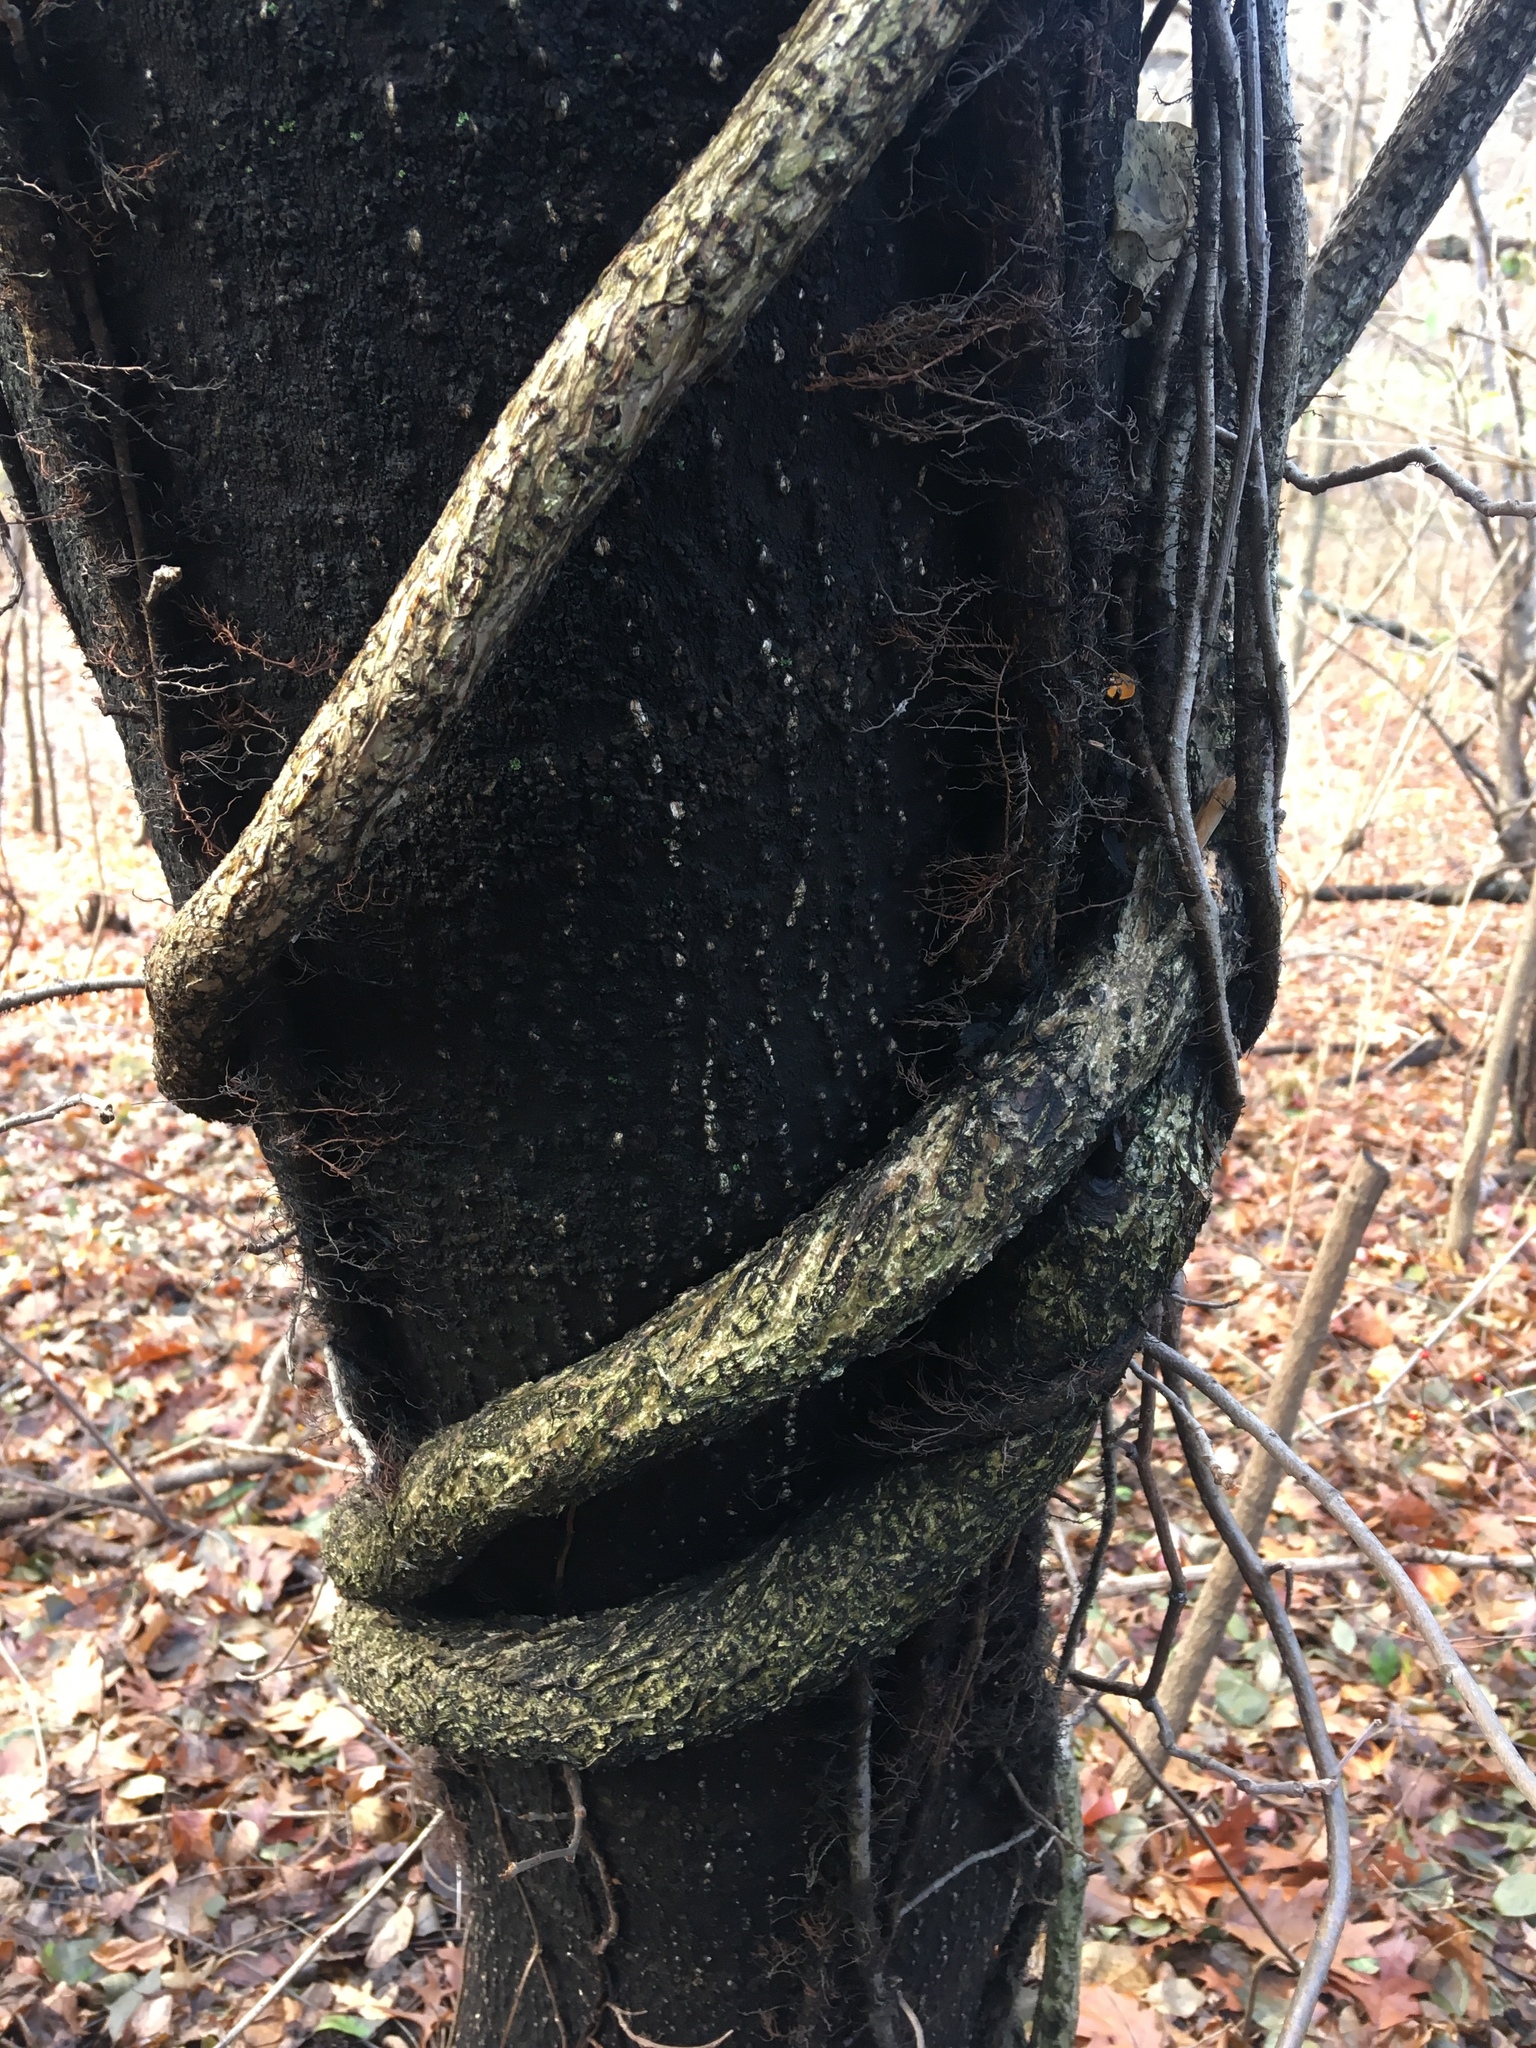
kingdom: Plantae
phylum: Tracheophyta
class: Magnoliopsida
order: Celastrales
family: Celastraceae
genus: Celastrus
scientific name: Celastrus orbiculatus
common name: Oriental bittersweet
